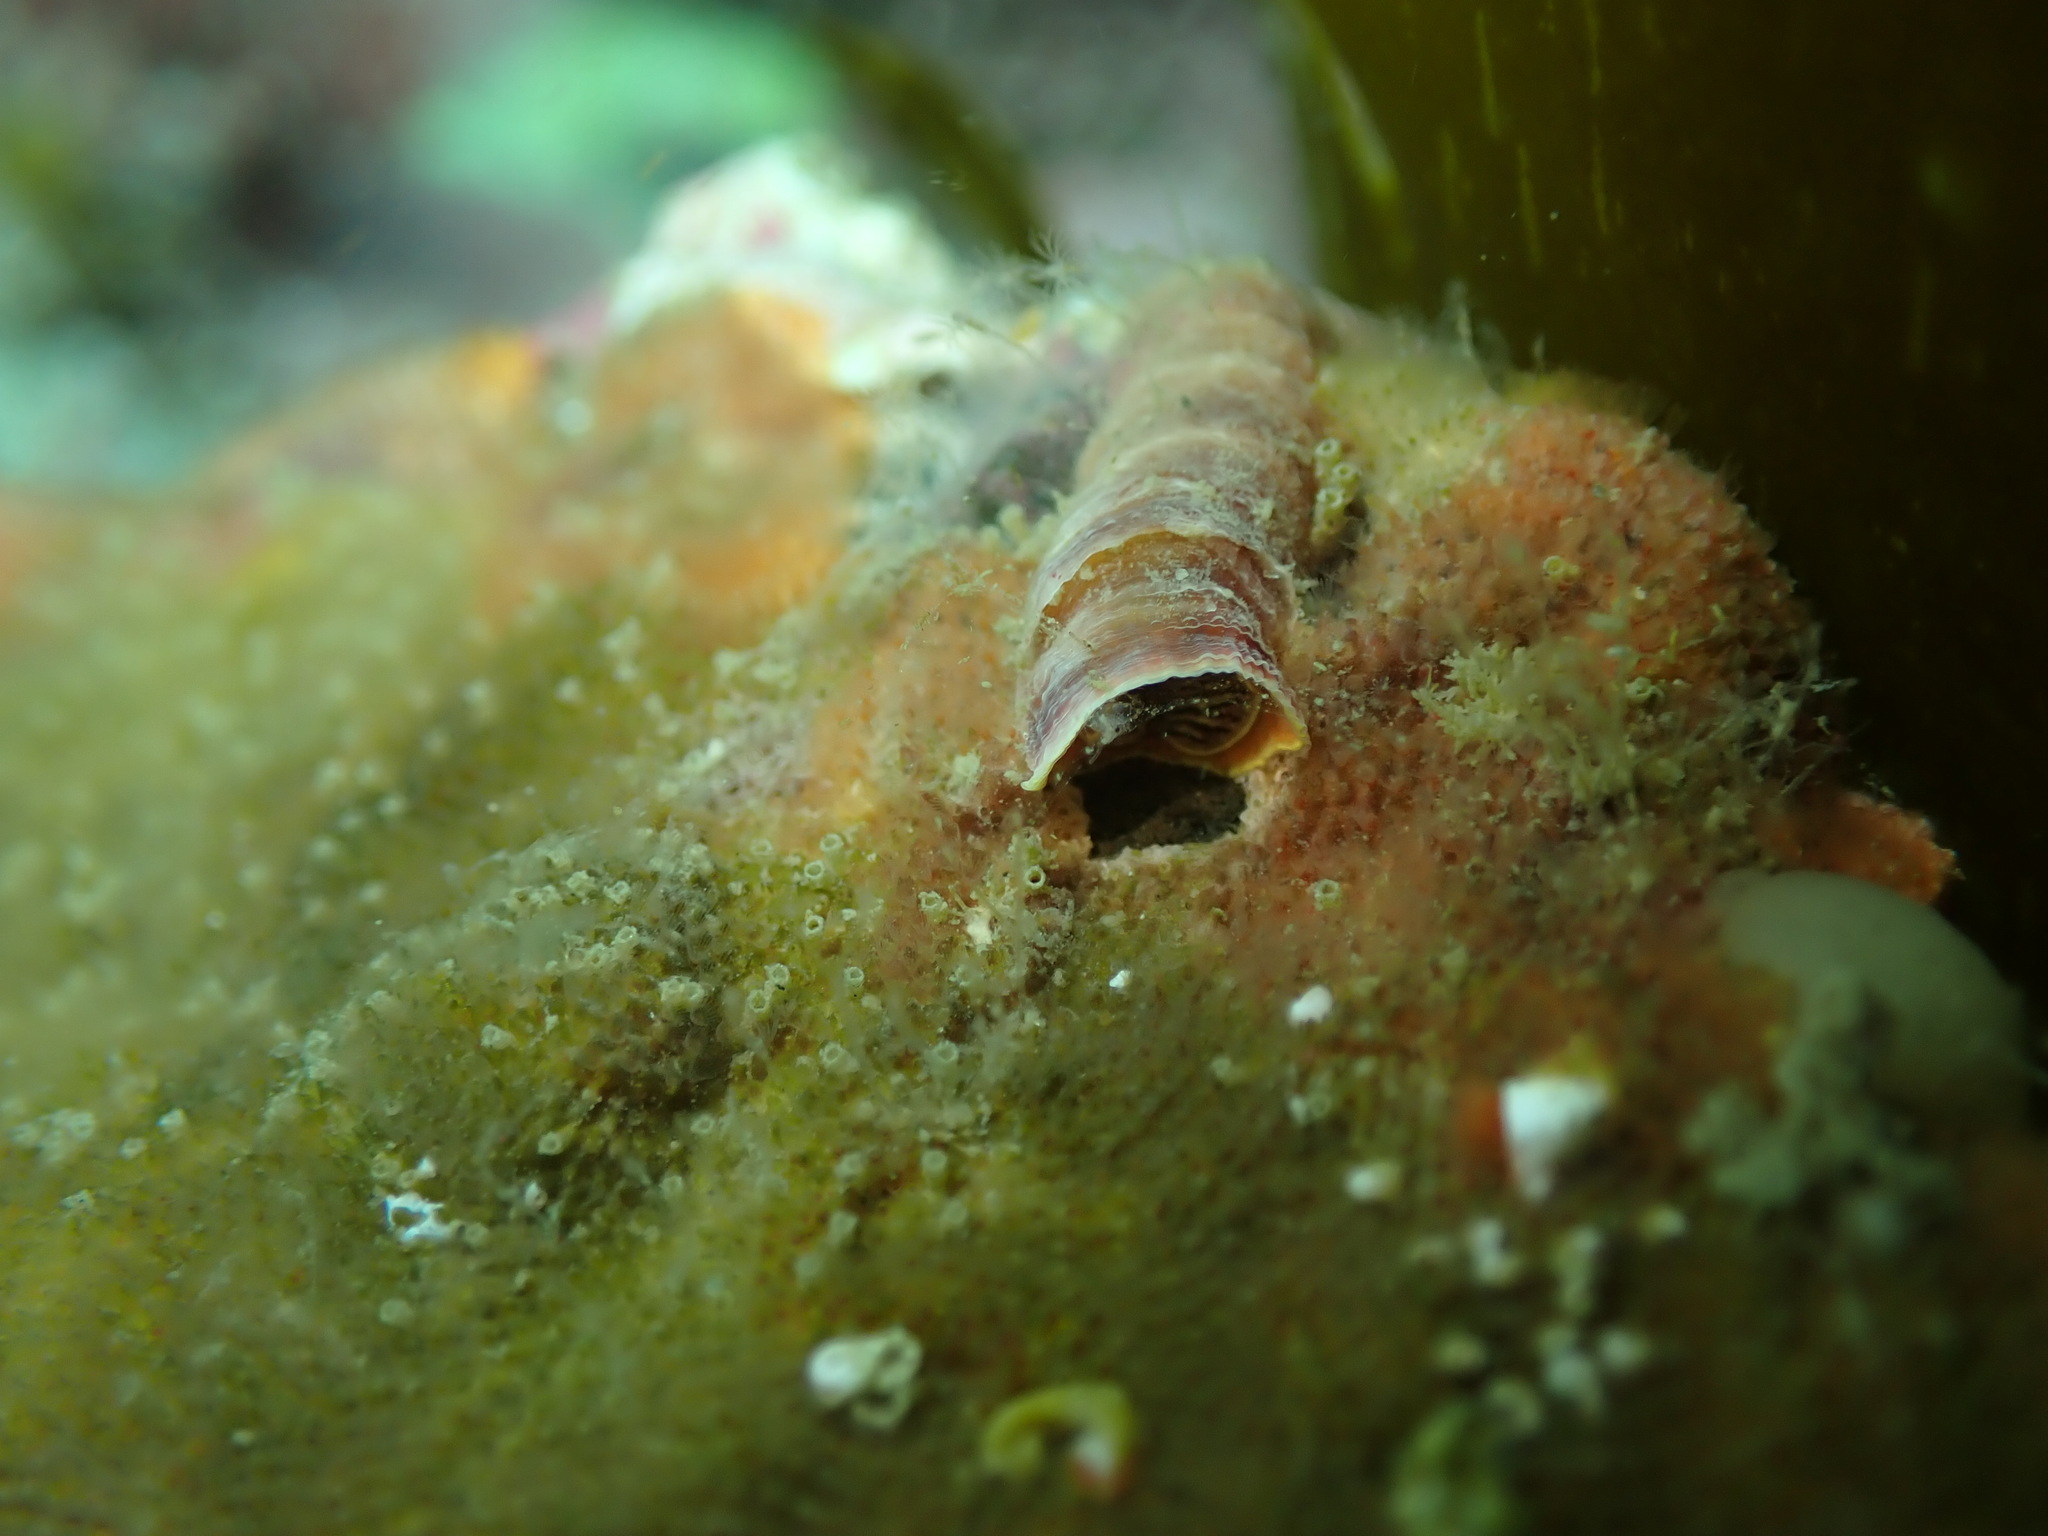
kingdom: Animalia
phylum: Mollusca
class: Gastropoda
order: Littorinimorpha
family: Vermetidae
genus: Thylacodes
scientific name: Thylacodes aotearoicus
